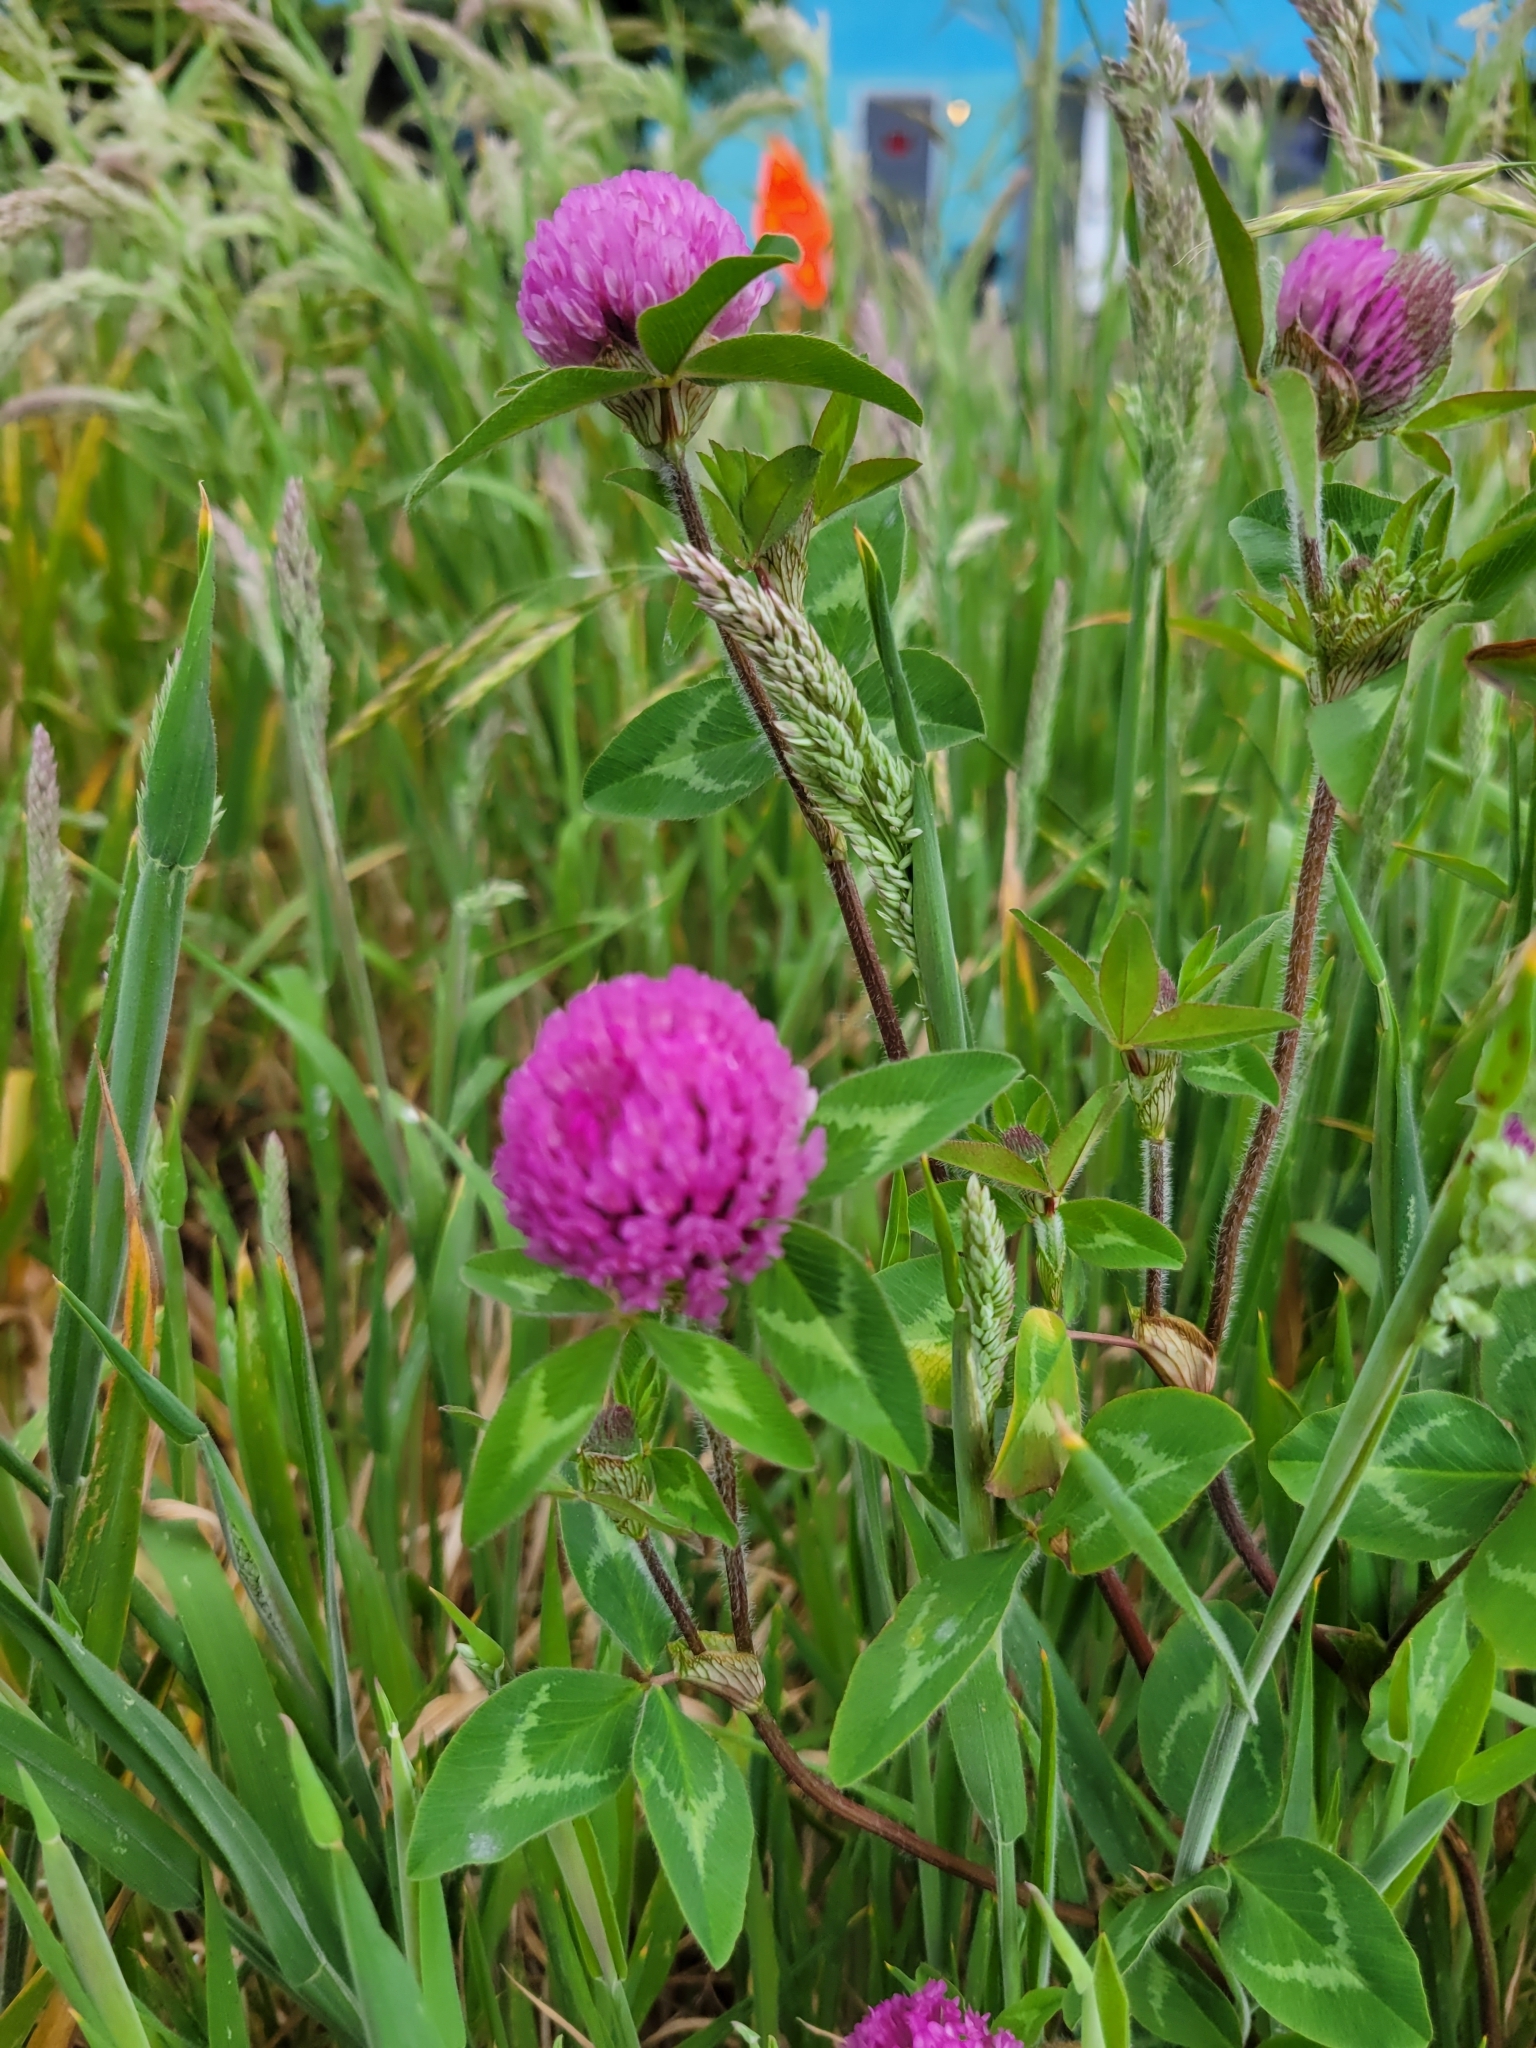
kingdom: Plantae
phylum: Tracheophyta
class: Magnoliopsida
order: Fabales
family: Fabaceae
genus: Trifolium
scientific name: Trifolium pratense
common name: Red clover
